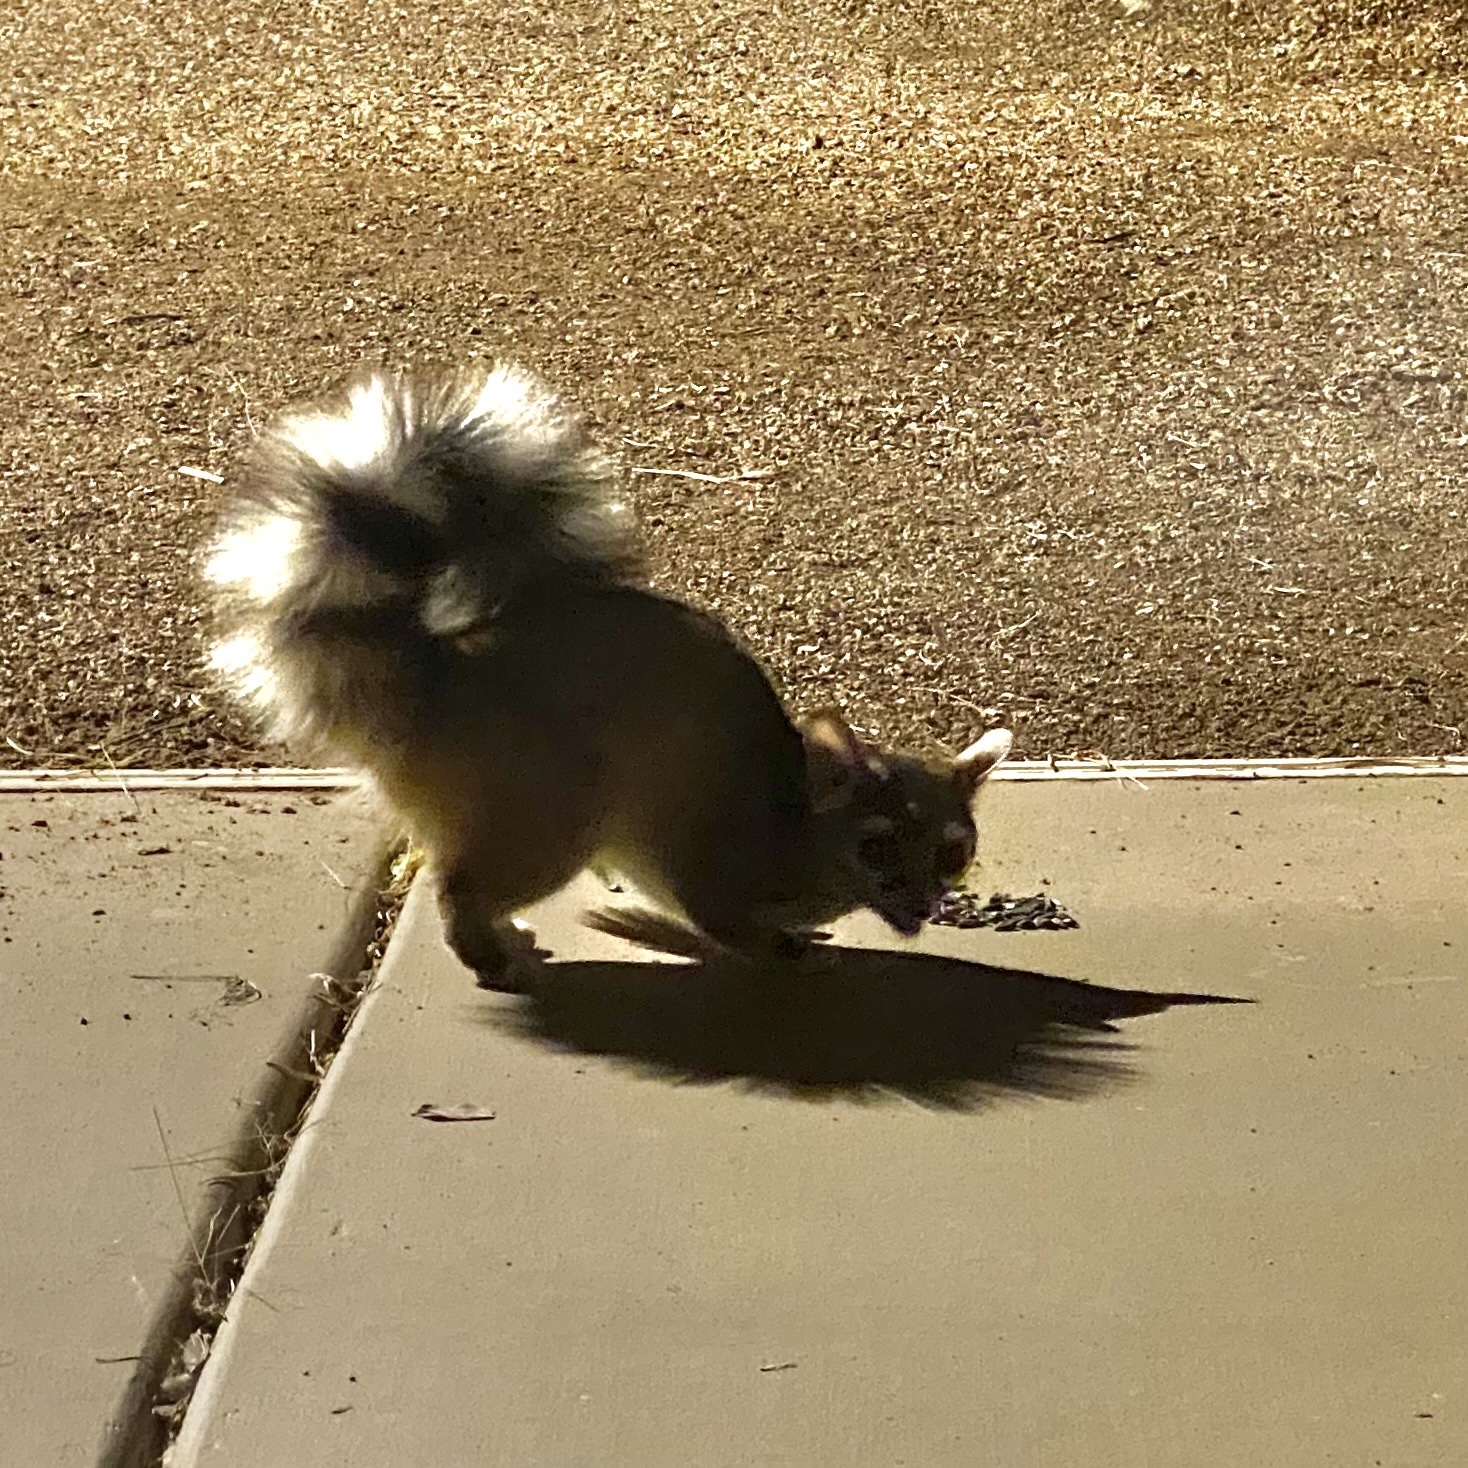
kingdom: Animalia
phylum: Chordata
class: Mammalia
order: Carnivora
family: Procyonidae
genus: Bassariscus
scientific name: Bassariscus astutus
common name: Ringtail
